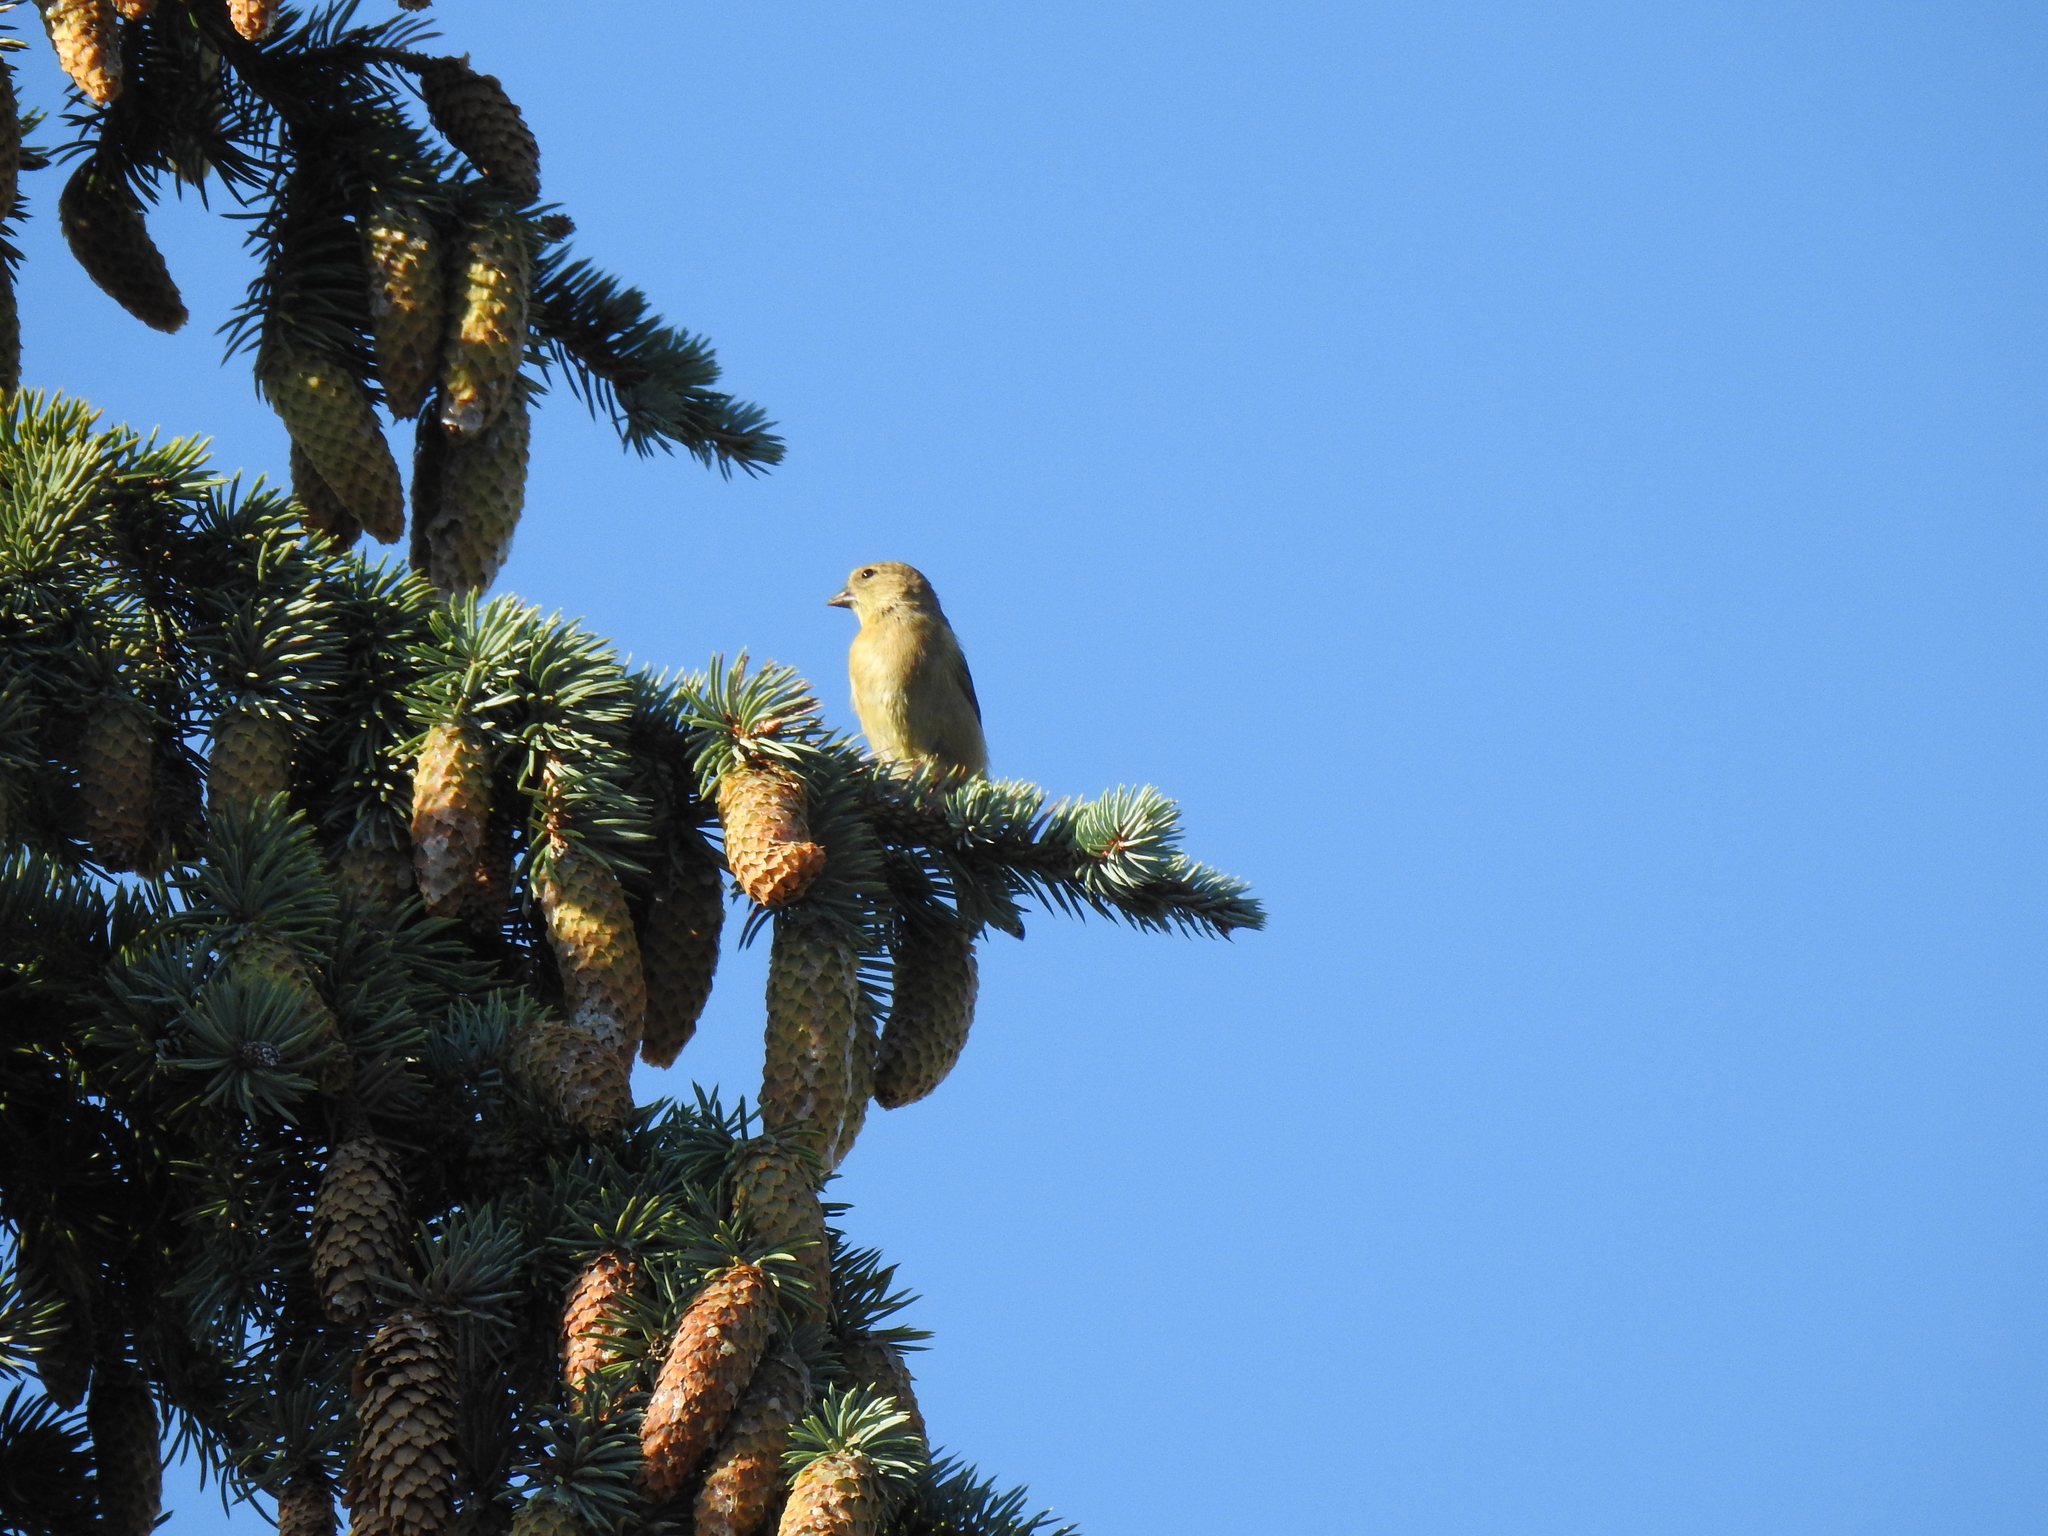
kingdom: Animalia
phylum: Chordata
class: Aves
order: Passeriformes
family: Fringillidae
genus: Spinus
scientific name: Spinus tristis
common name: American goldfinch
